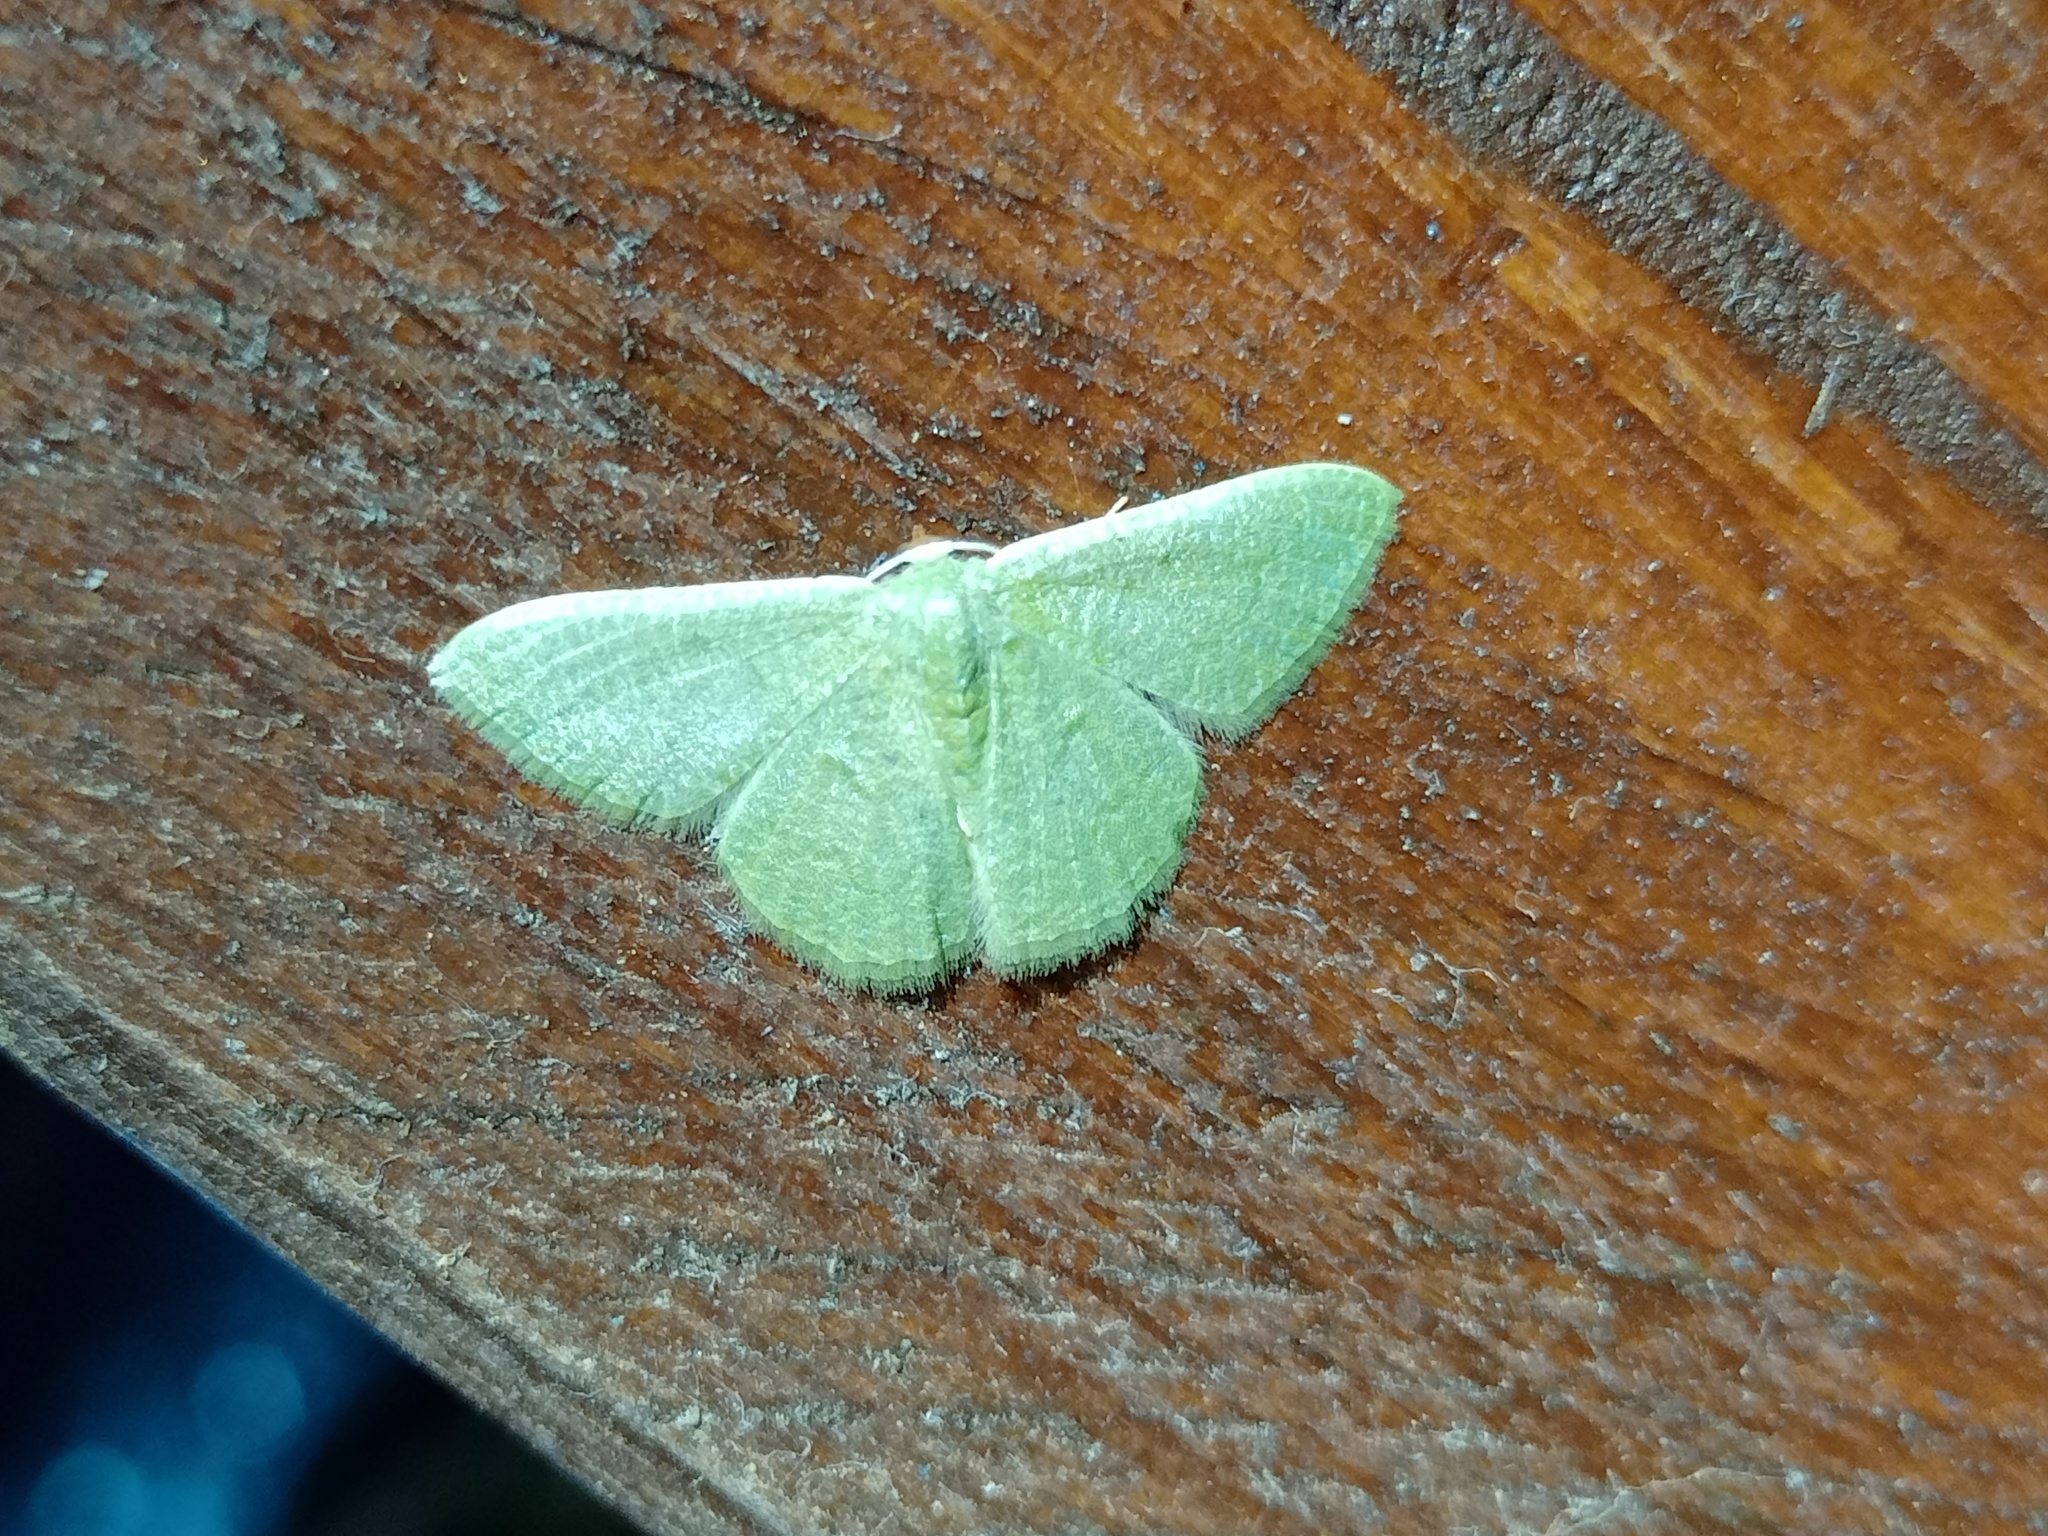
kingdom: Animalia
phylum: Arthropoda
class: Insecta
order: Lepidoptera
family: Geometridae
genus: Phaiogramma
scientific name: Phaiogramma faustinata
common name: Millière's emerald
